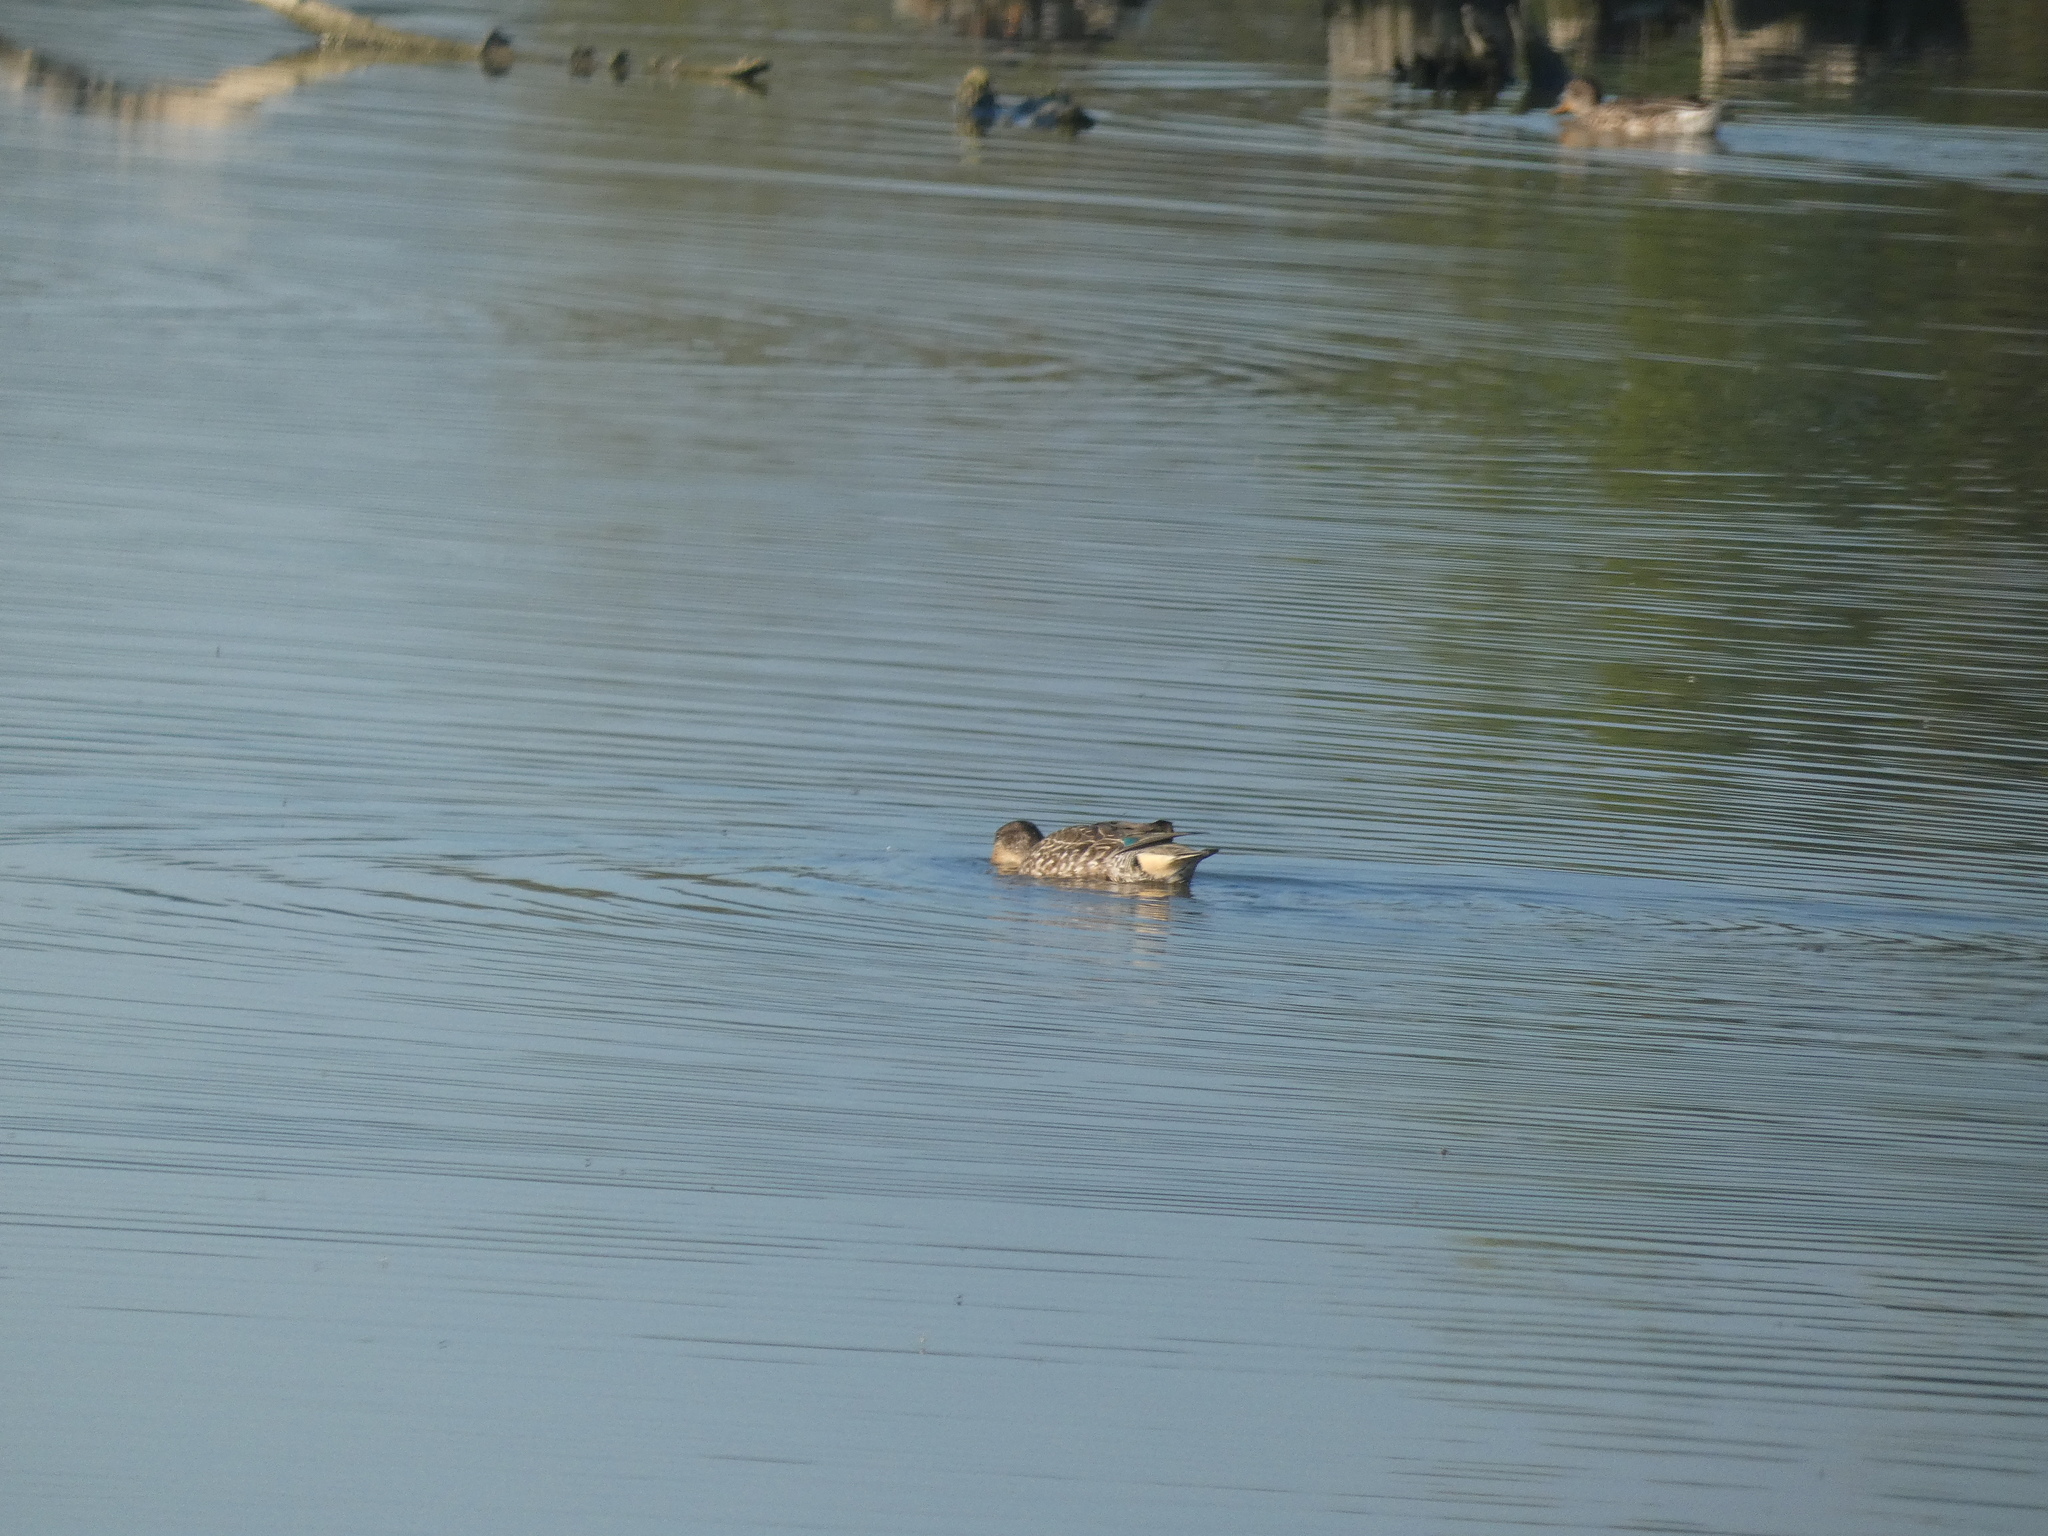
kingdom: Animalia
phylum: Chordata
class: Aves
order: Anseriformes
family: Anatidae
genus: Anas
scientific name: Anas crecca
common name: Eurasian teal
